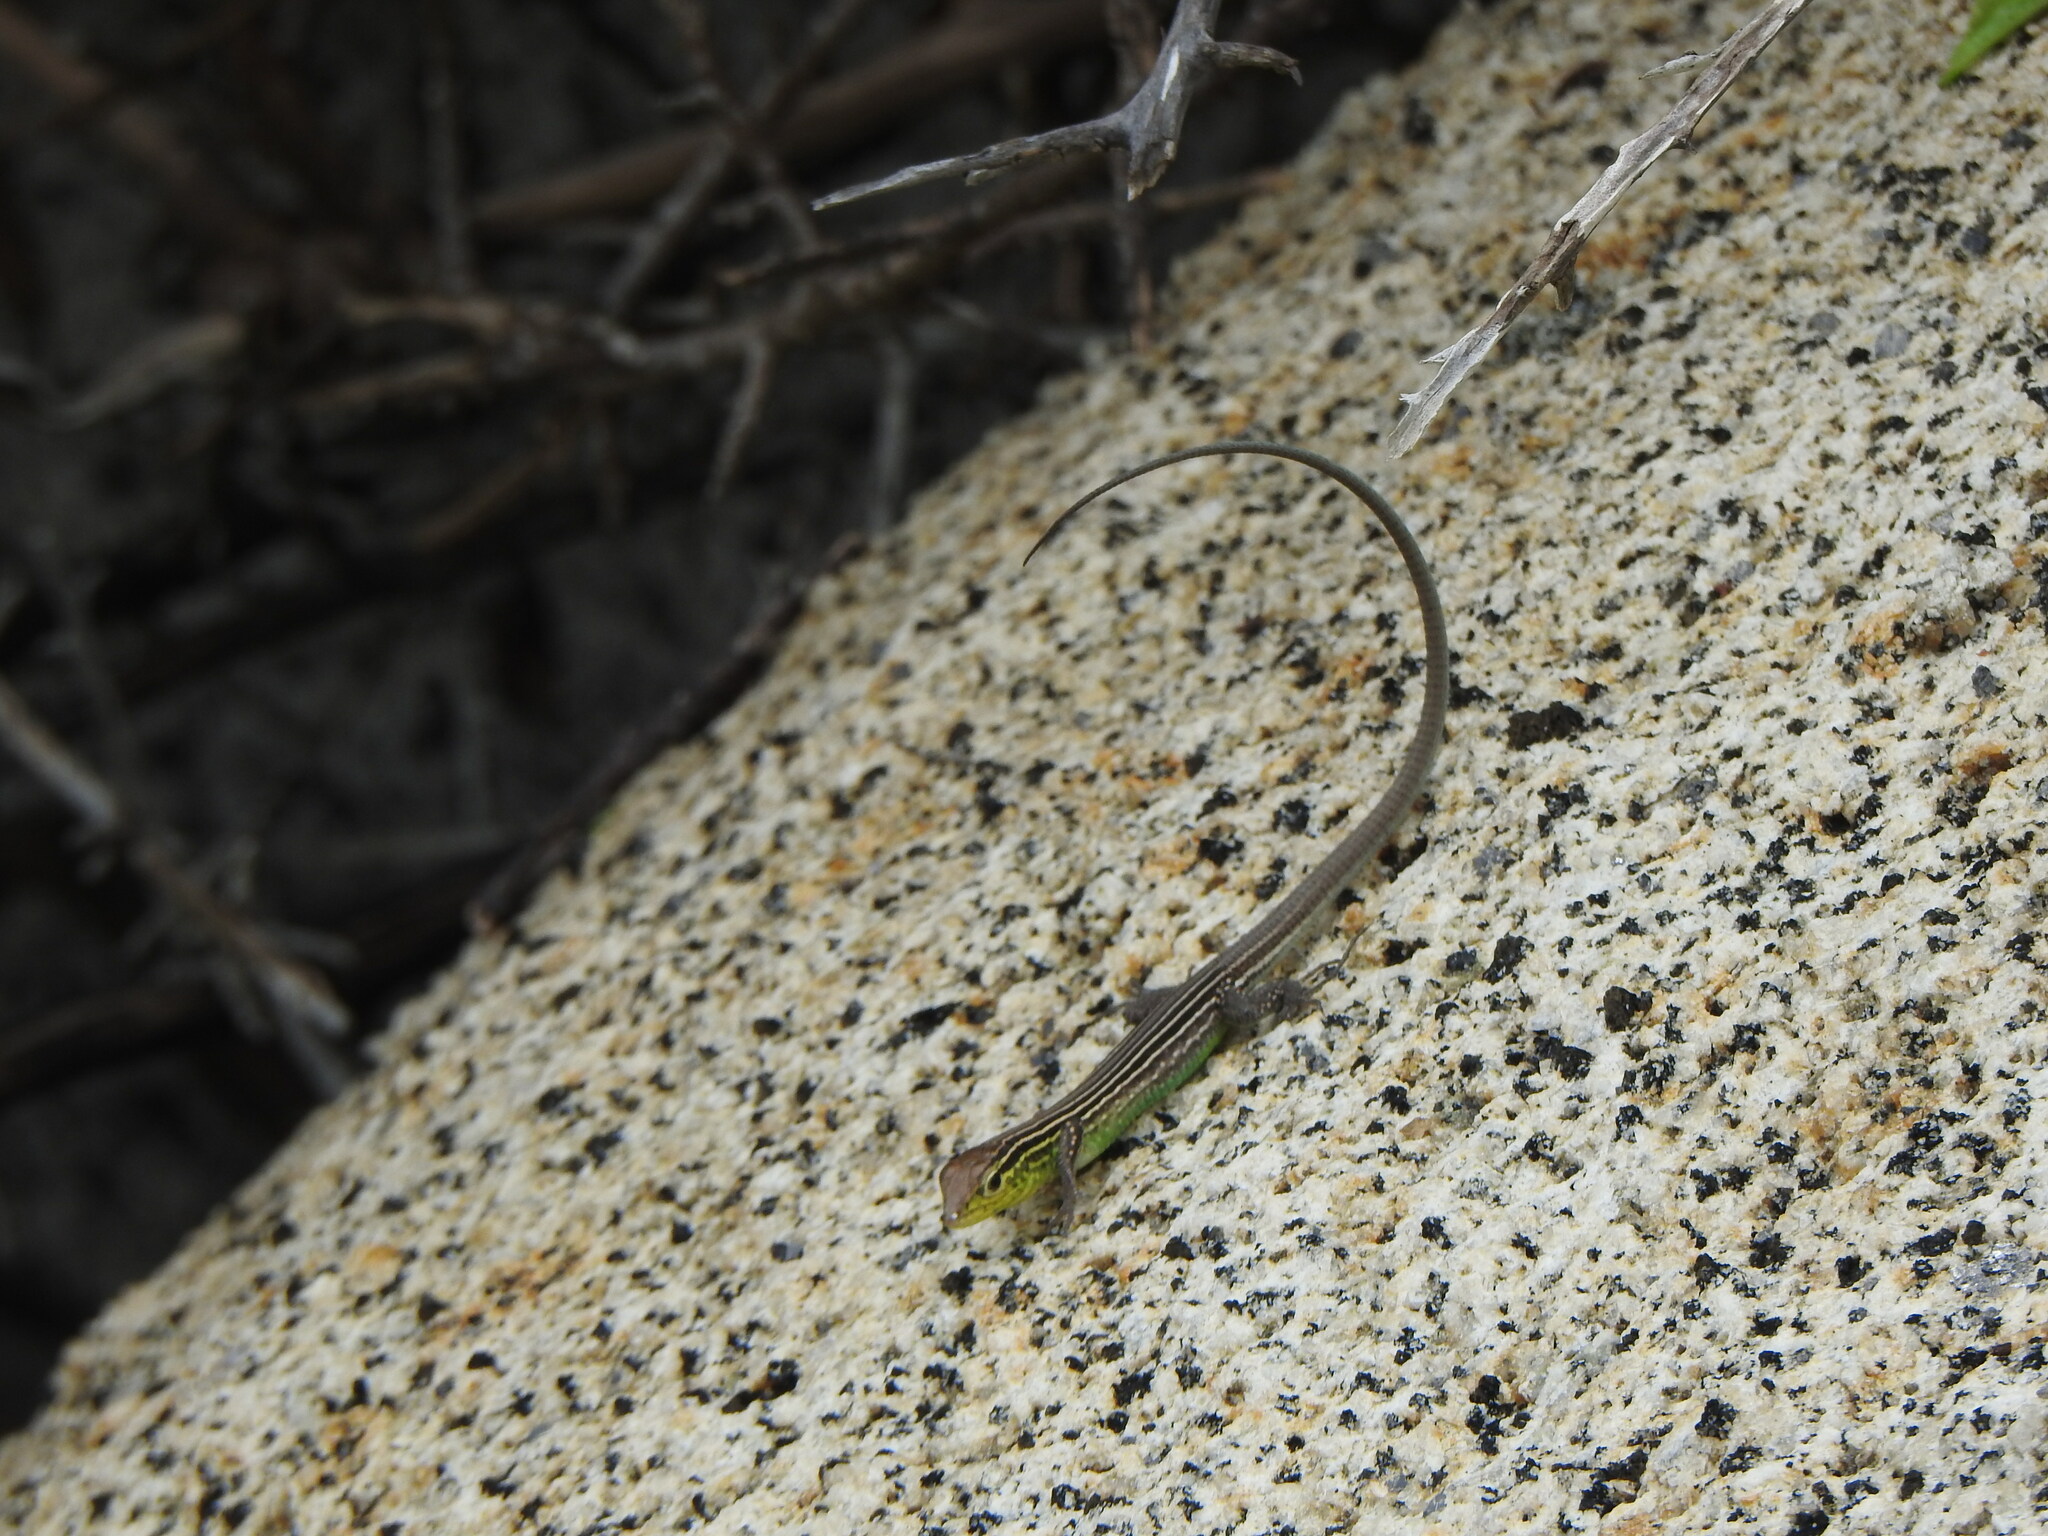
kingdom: Animalia
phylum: Chordata
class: Squamata
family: Teiidae
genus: Cnemidophorus
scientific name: Cnemidophorus gaigei
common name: Gaige’s rainbow lizard
